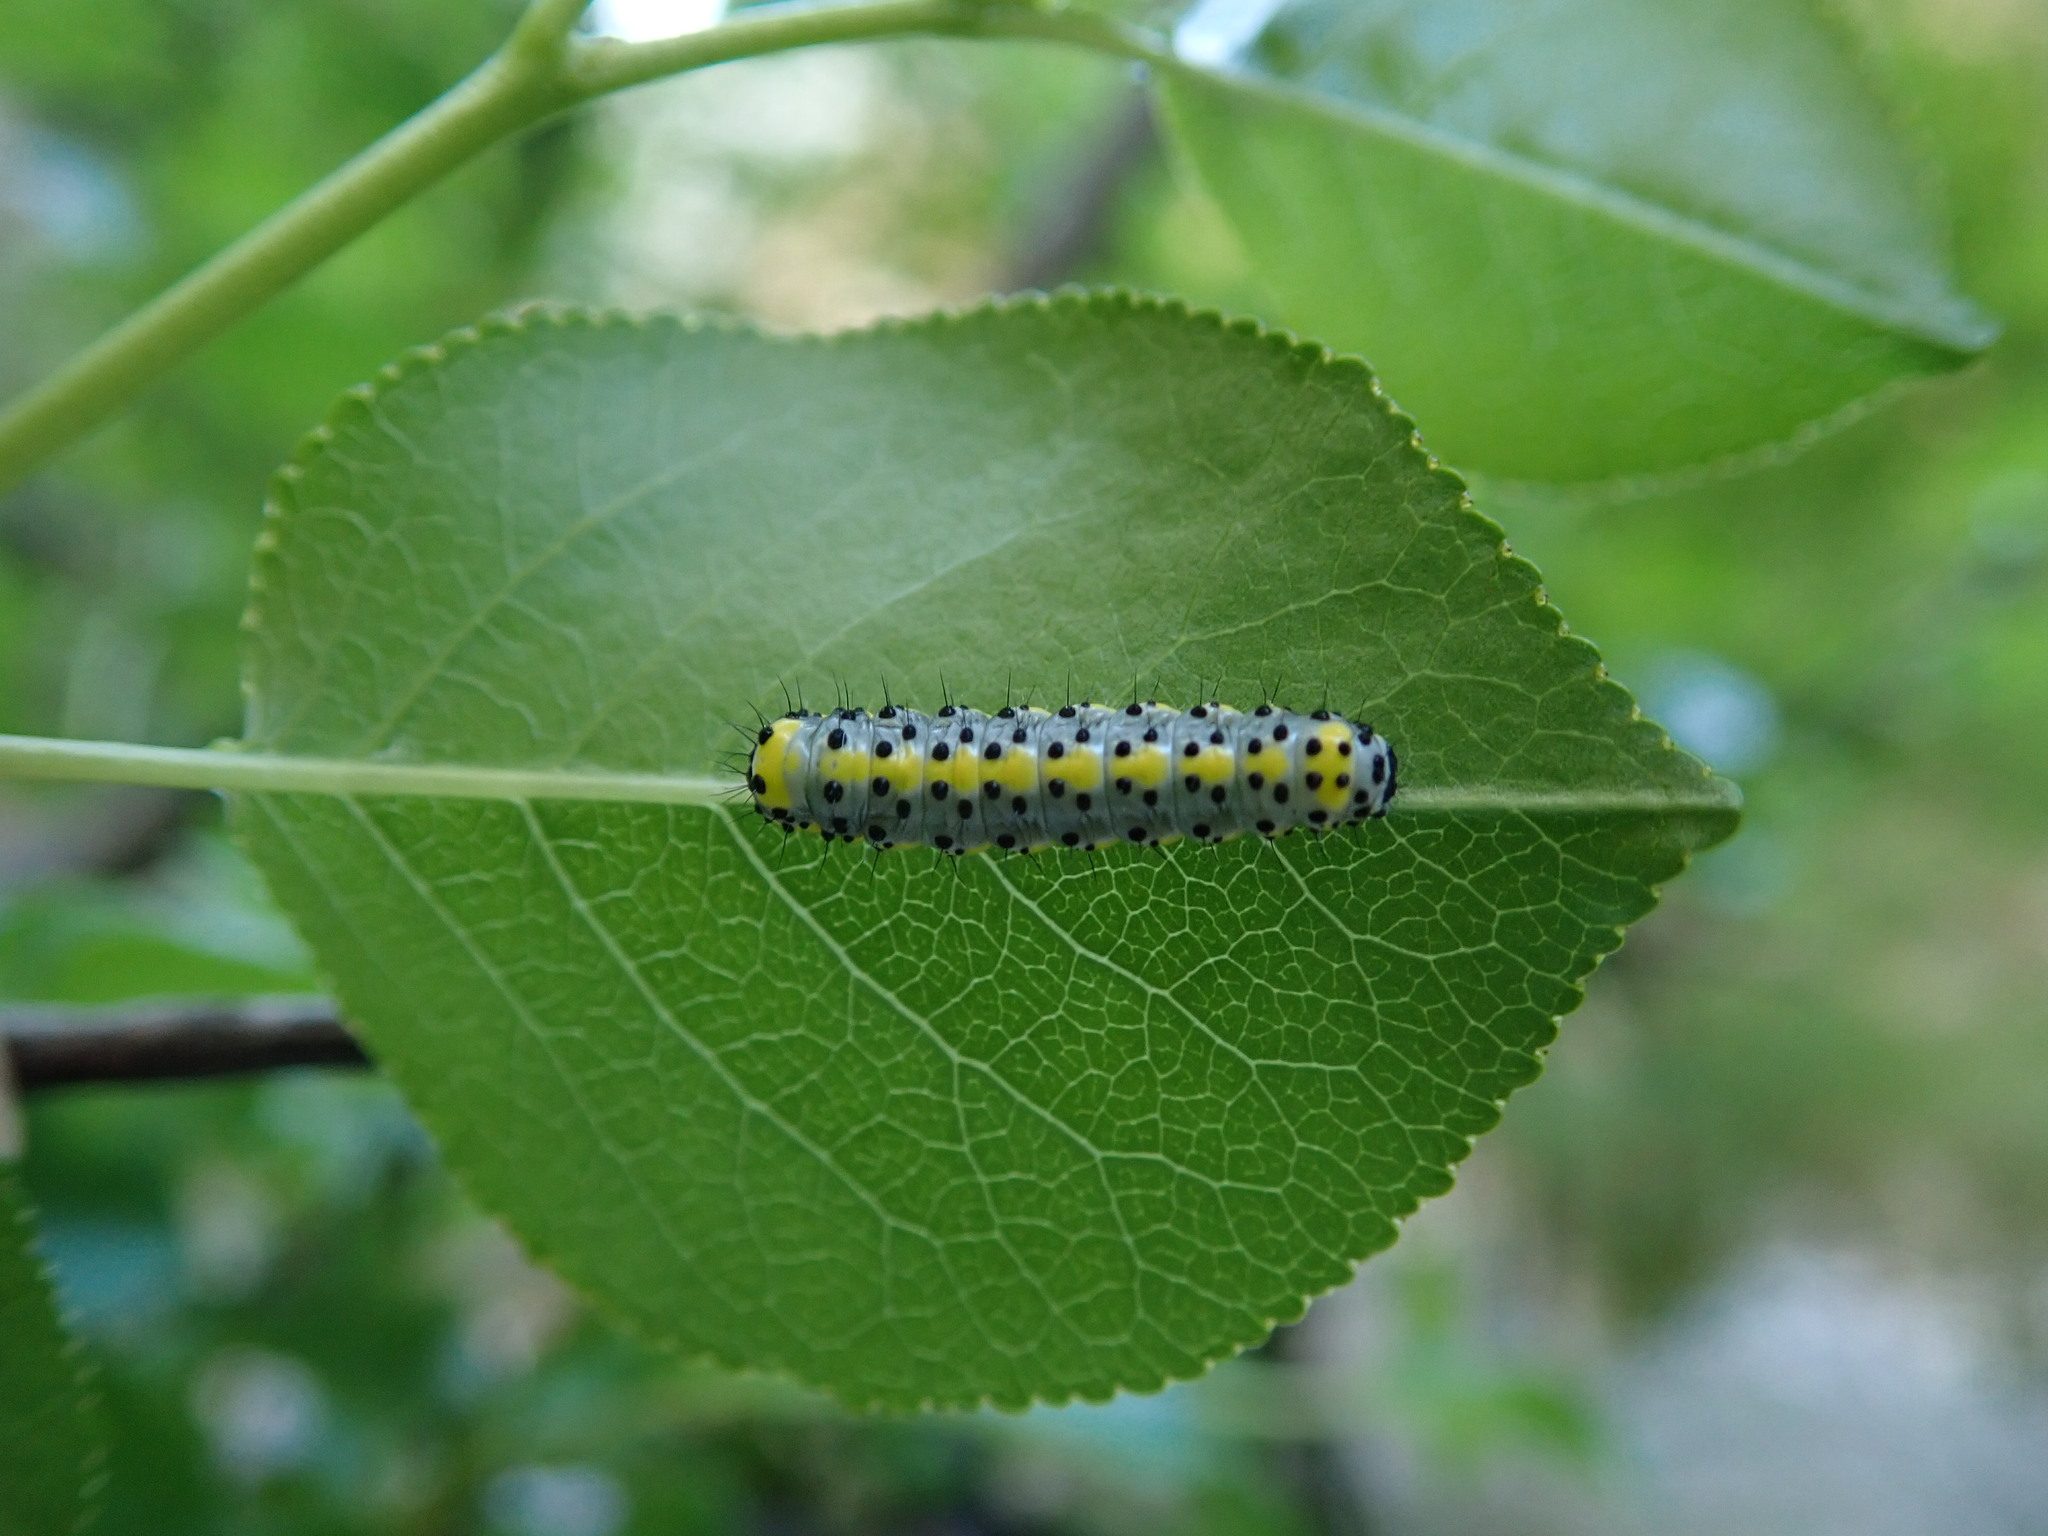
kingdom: Animalia
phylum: Arthropoda
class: Insecta
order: Lepidoptera
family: Noctuidae
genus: Diloba
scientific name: Diloba caeruleocephala
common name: Figure of eight
